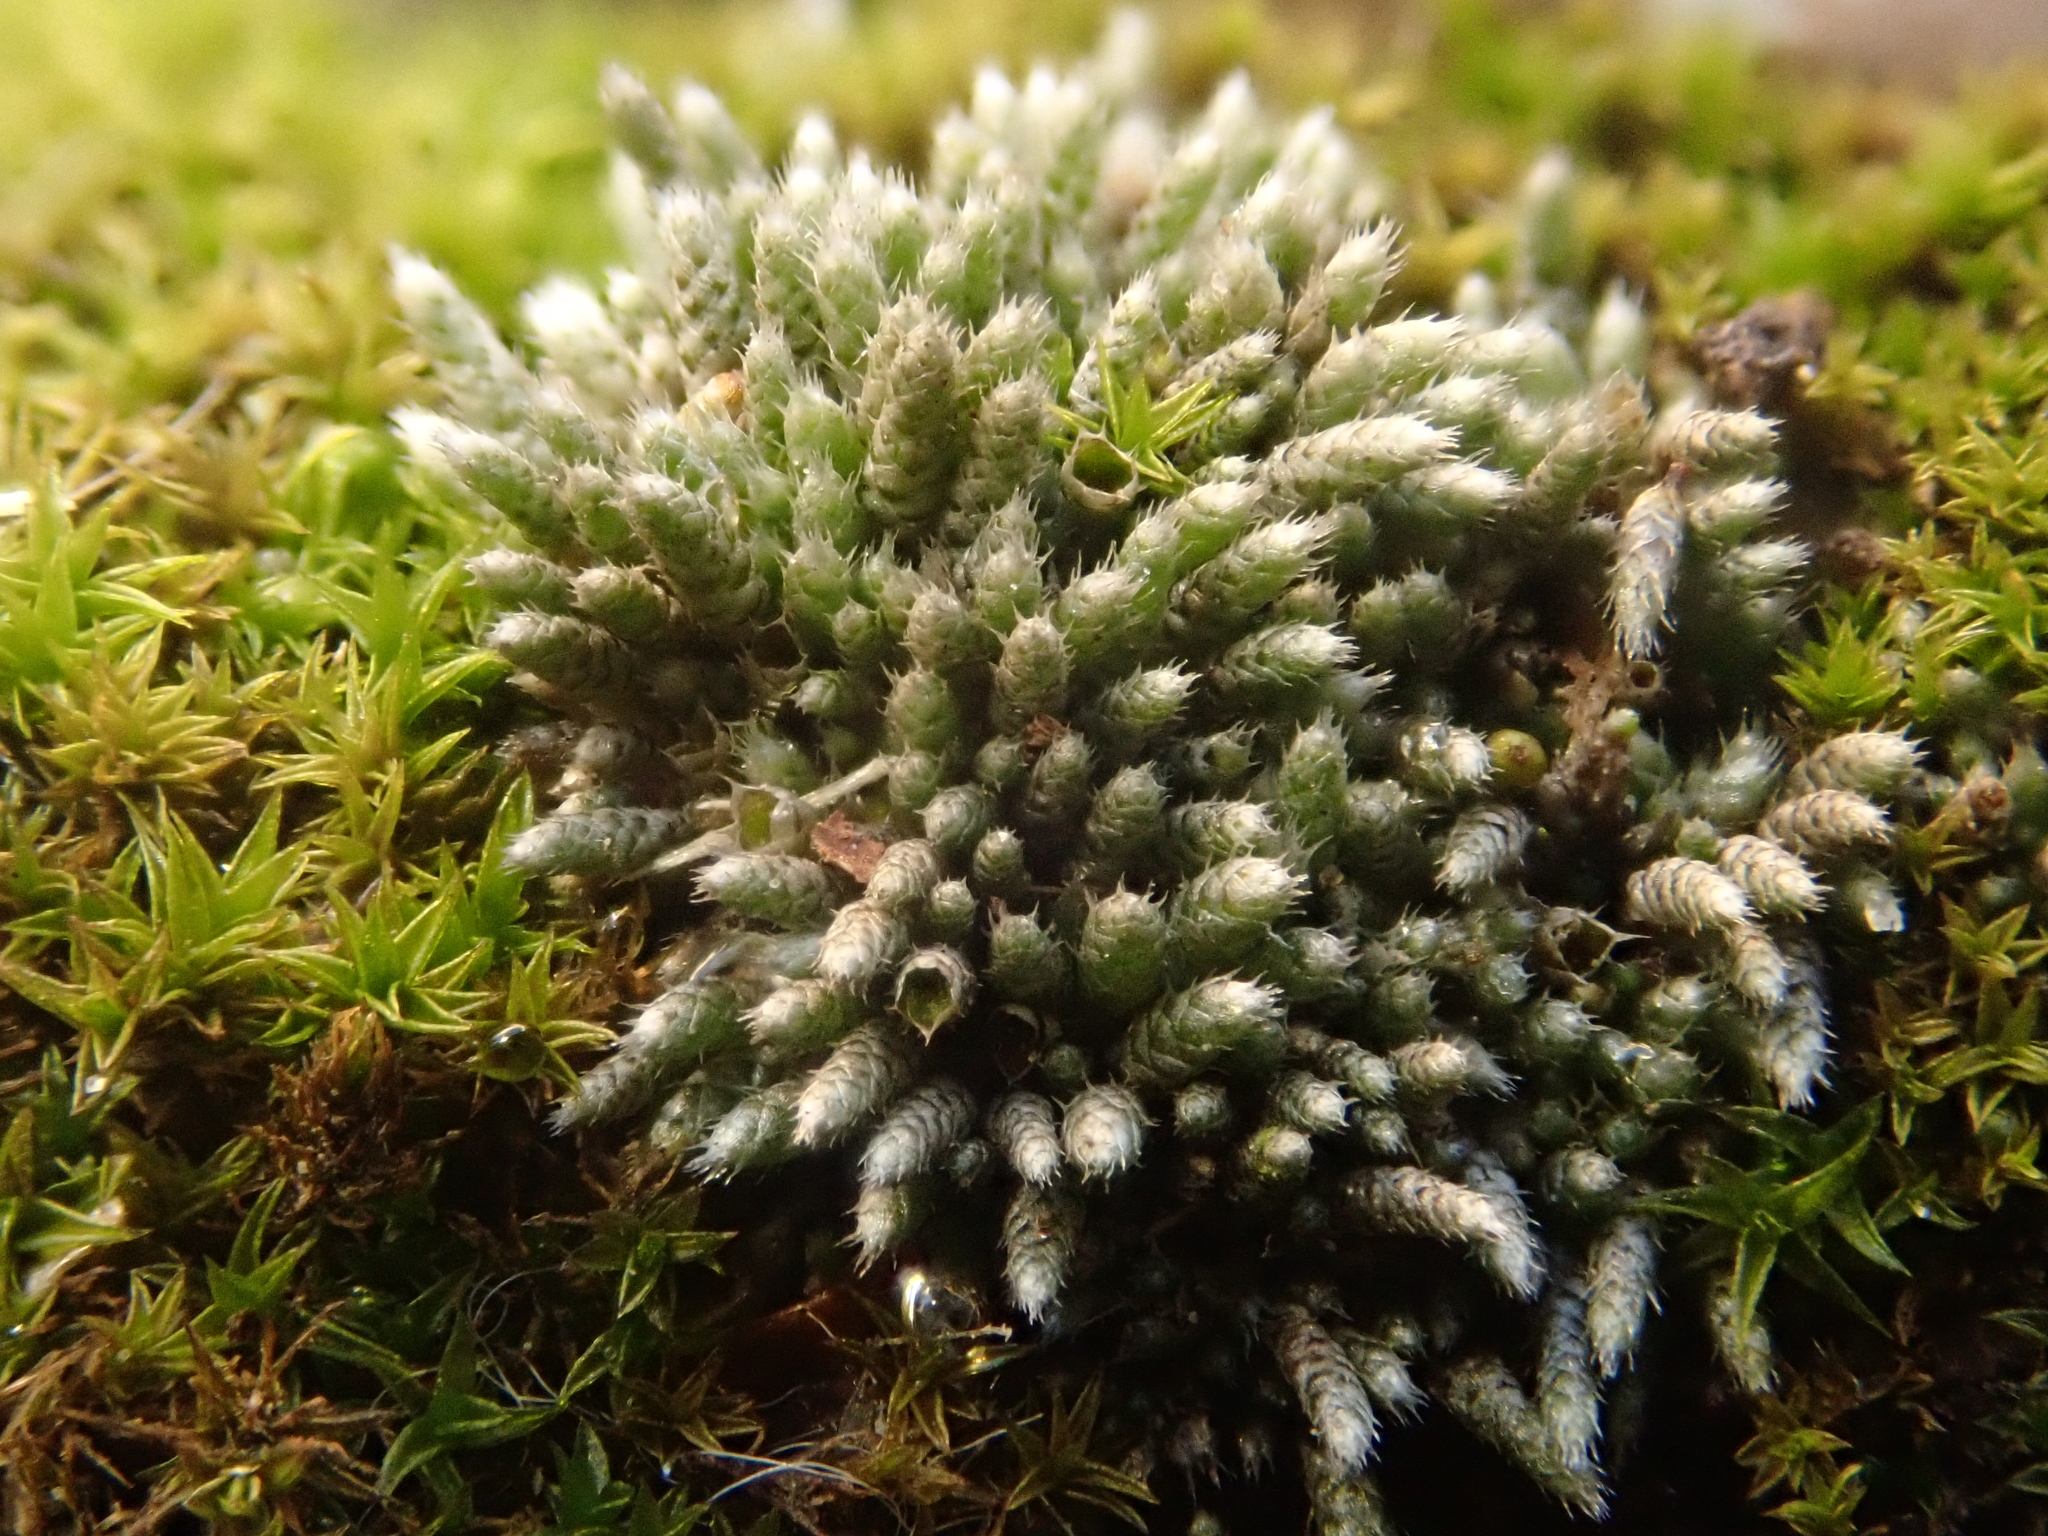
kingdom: Plantae
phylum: Bryophyta
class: Bryopsida
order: Bryales
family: Bryaceae
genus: Bryum
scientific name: Bryum argenteum
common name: Silver-moss
